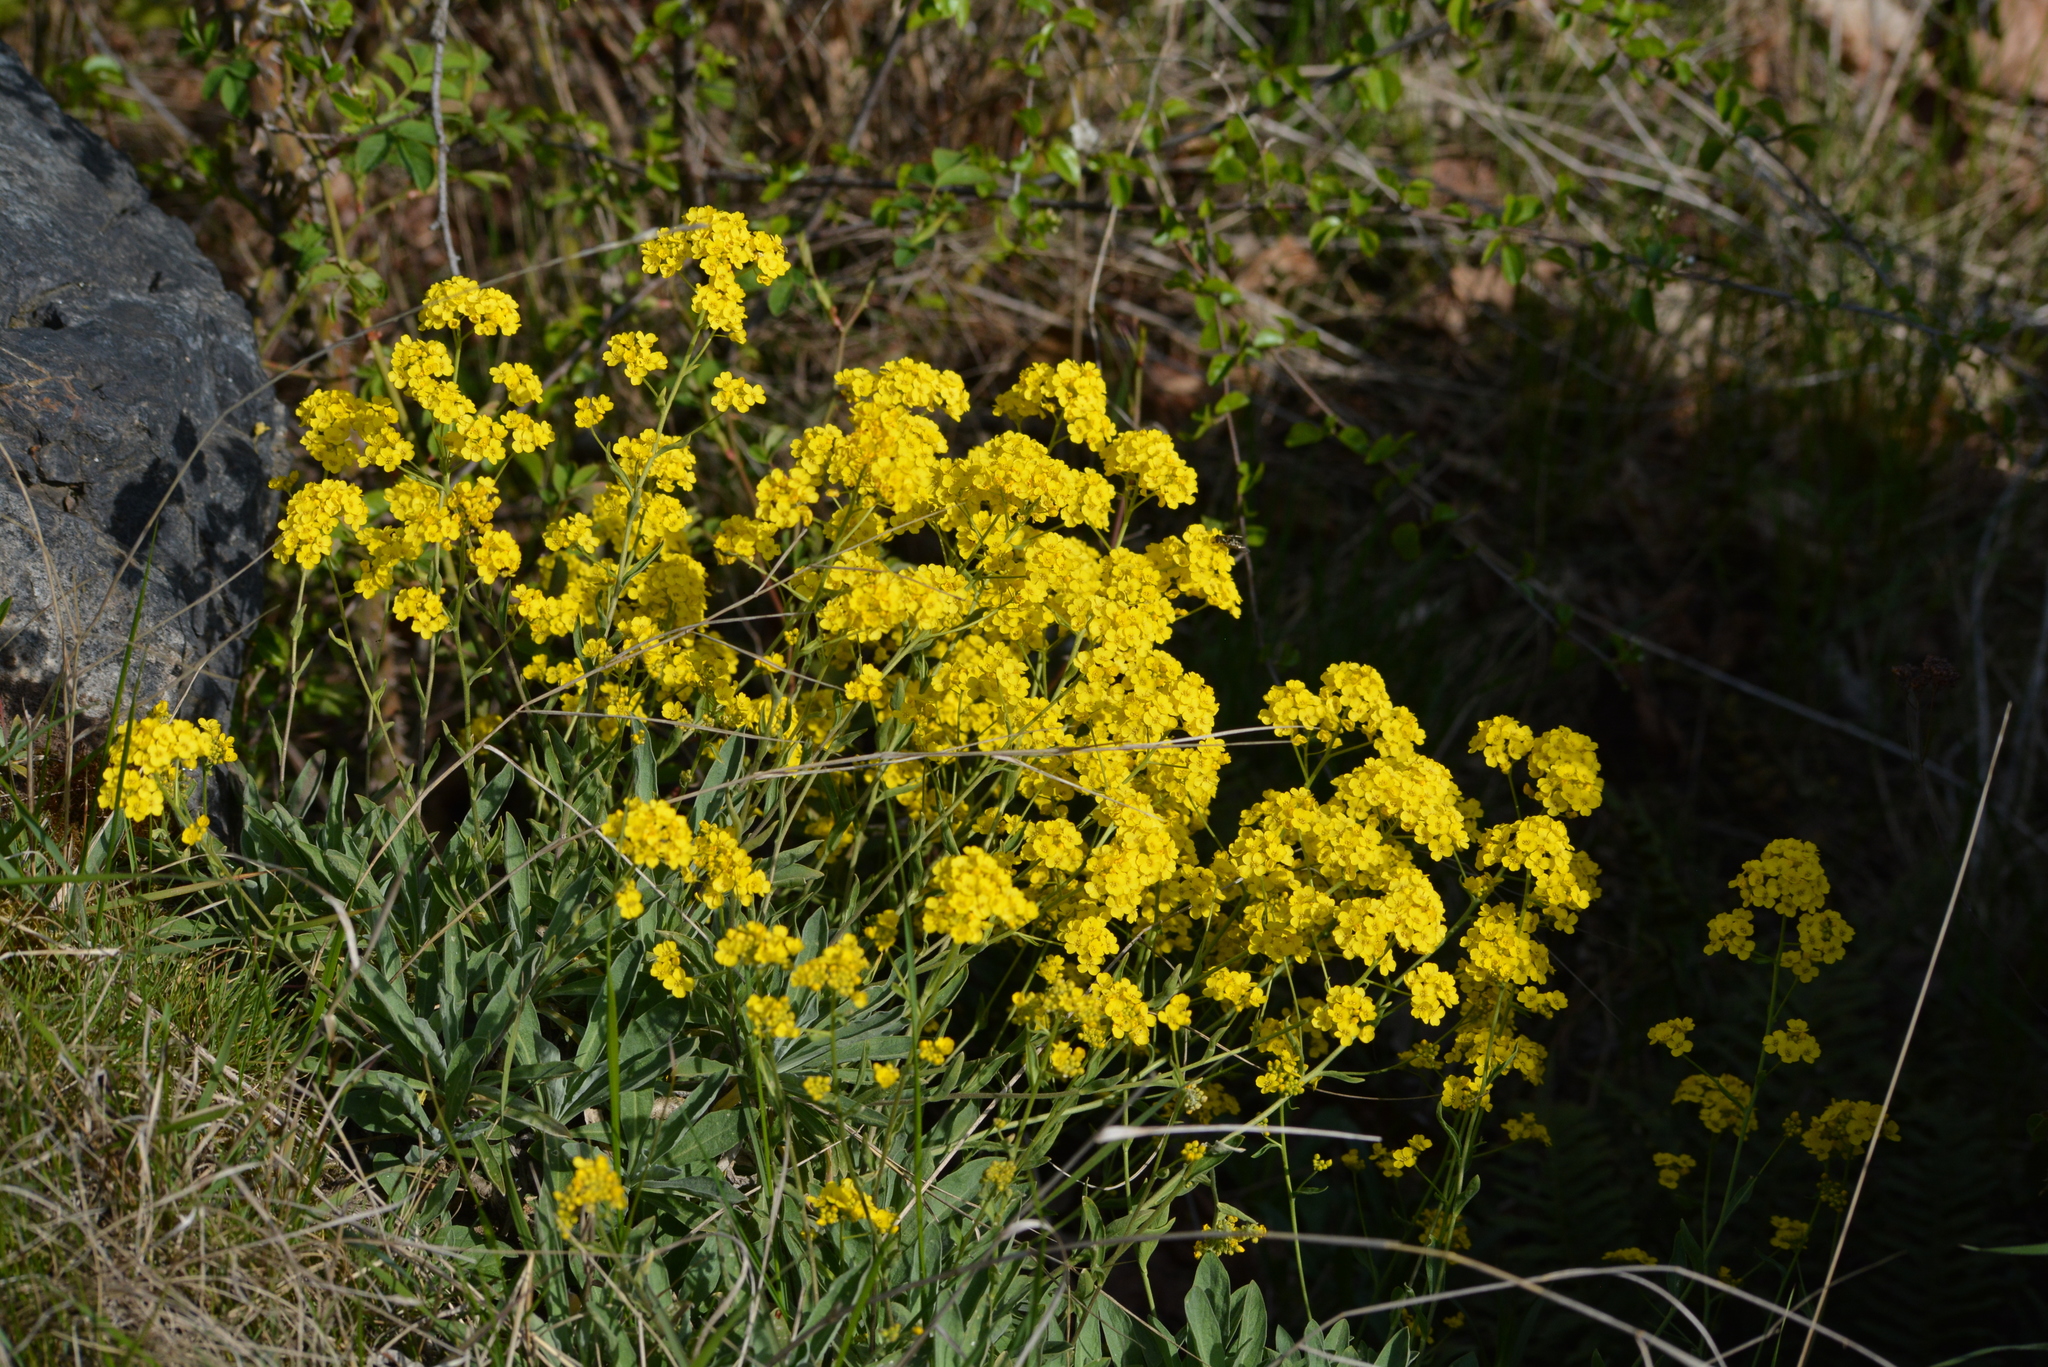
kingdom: Plantae
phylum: Tracheophyta
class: Magnoliopsida
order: Brassicales
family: Brassicaceae
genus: Aurinia
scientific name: Aurinia saxatilis
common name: Golden-tuft alyssum
